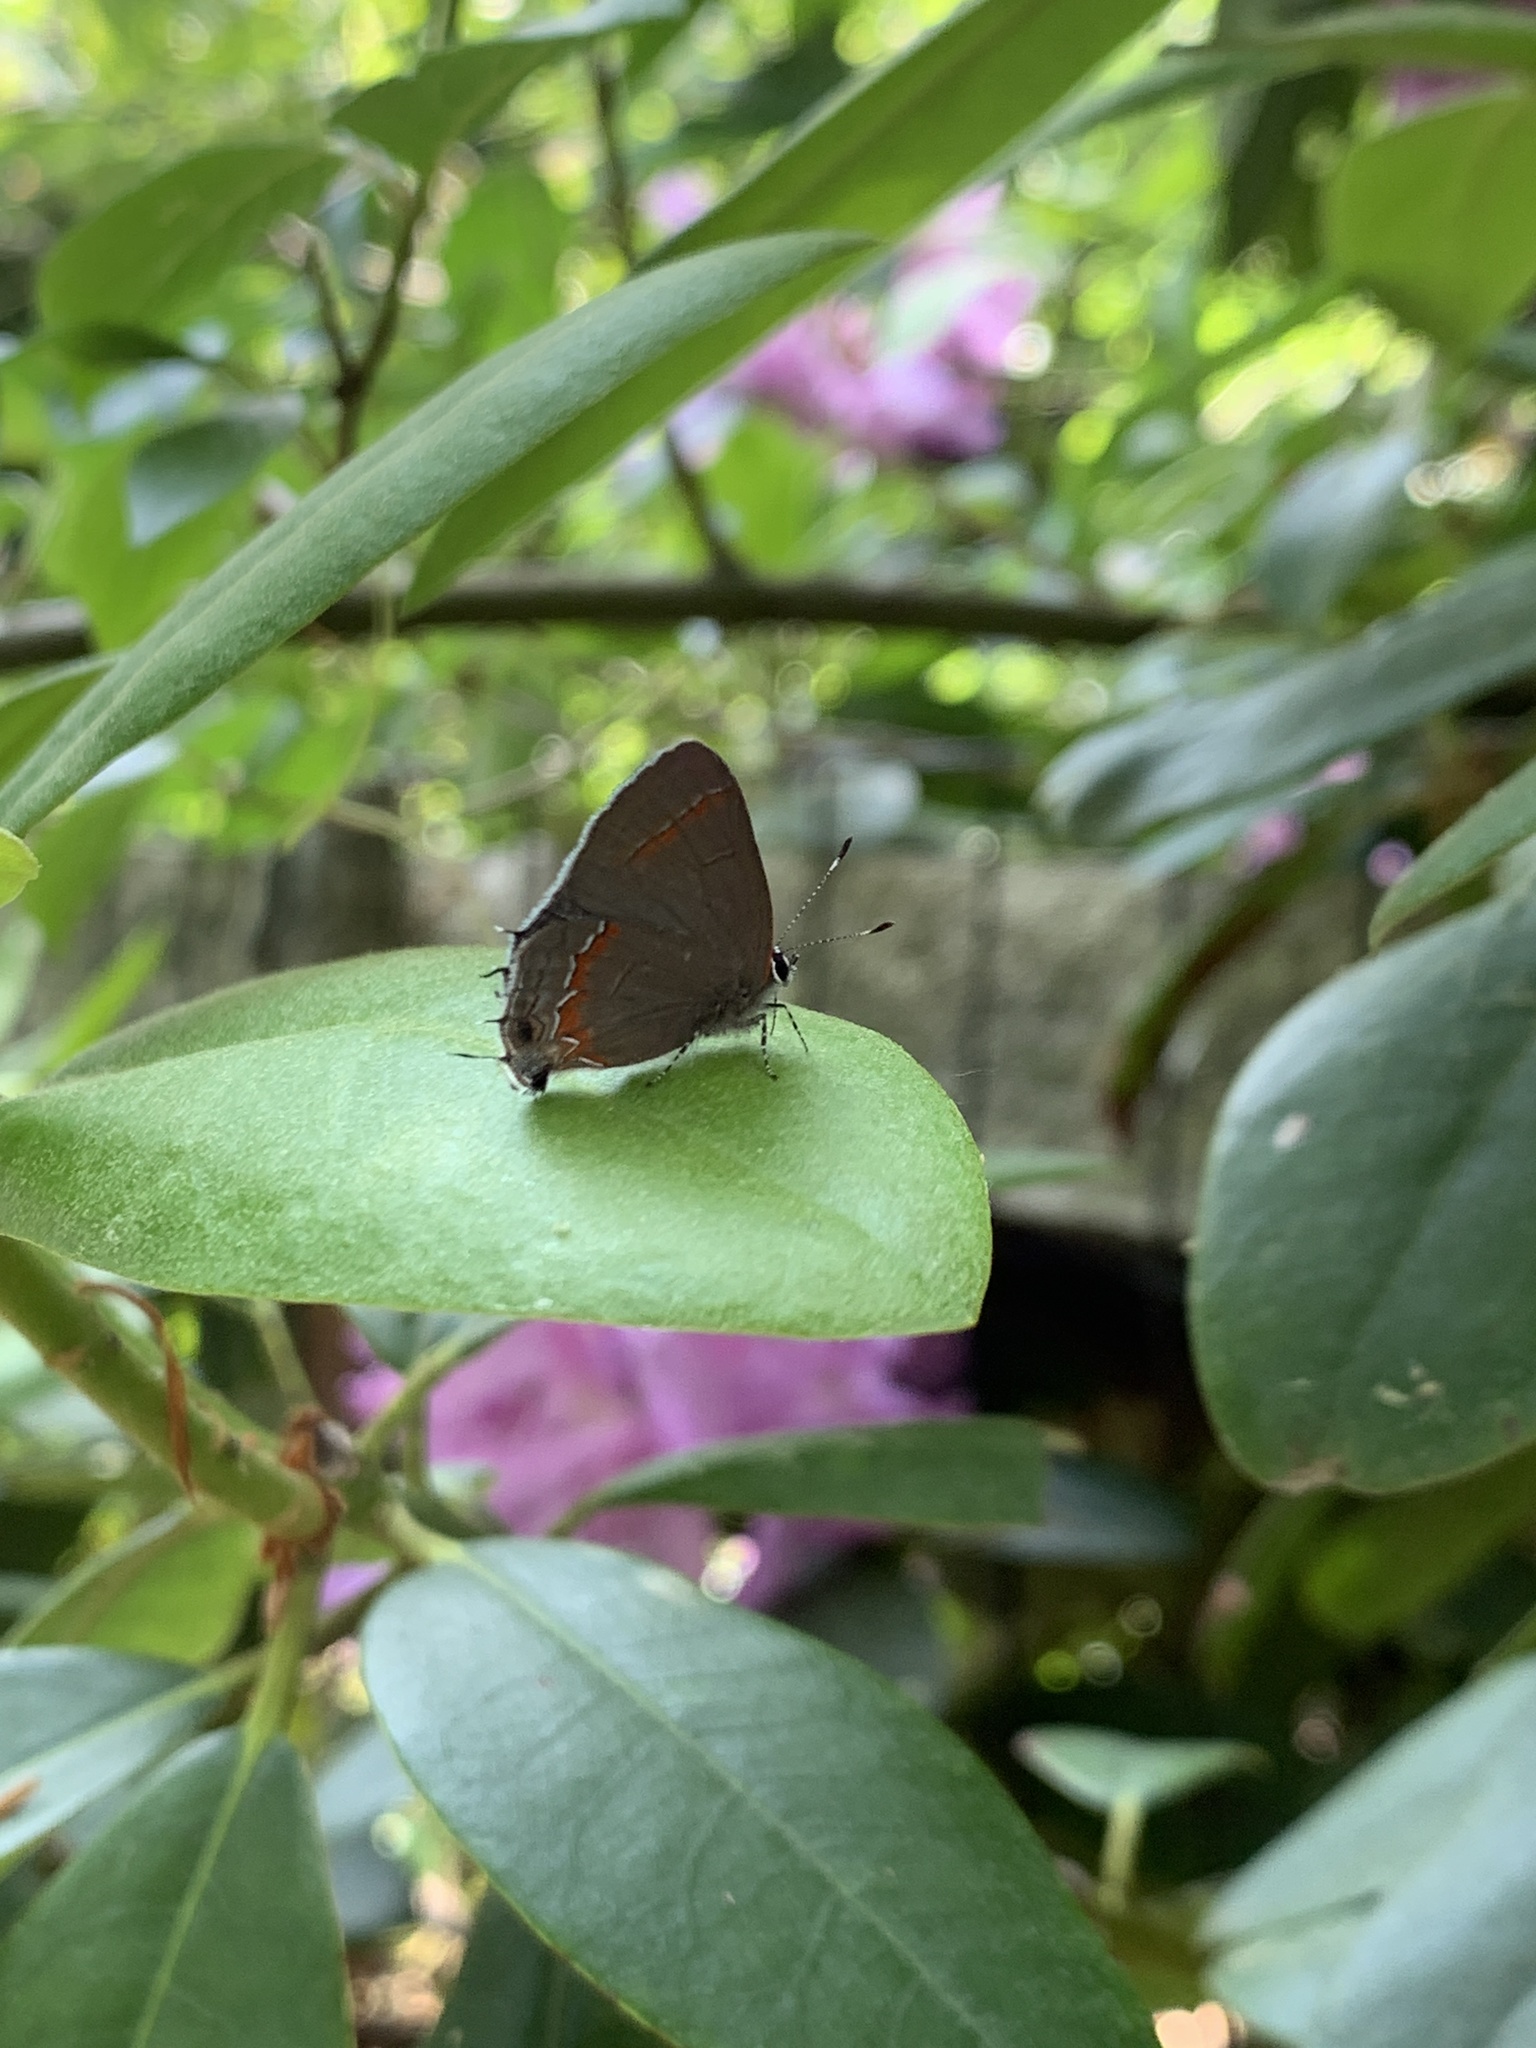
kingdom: Animalia
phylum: Arthropoda
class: Insecta
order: Lepidoptera
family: Lycaenidae
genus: Calycopis
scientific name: Calycopis cecrops
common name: Red-banded hairstreak
